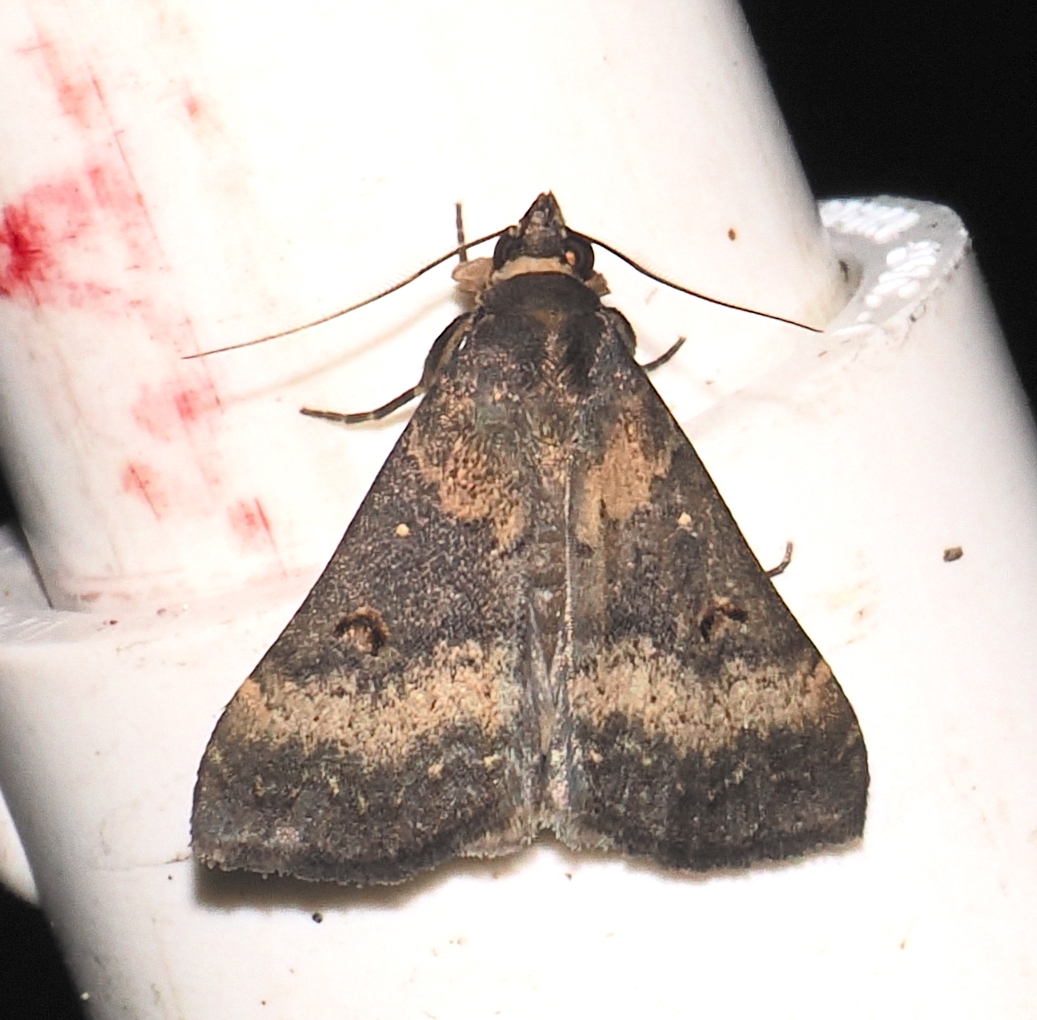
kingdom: Animalia
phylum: Arthropoda
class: Insecta
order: Lepidoptera
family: Erebidae
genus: Bleptina
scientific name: Bleptina confusalis
